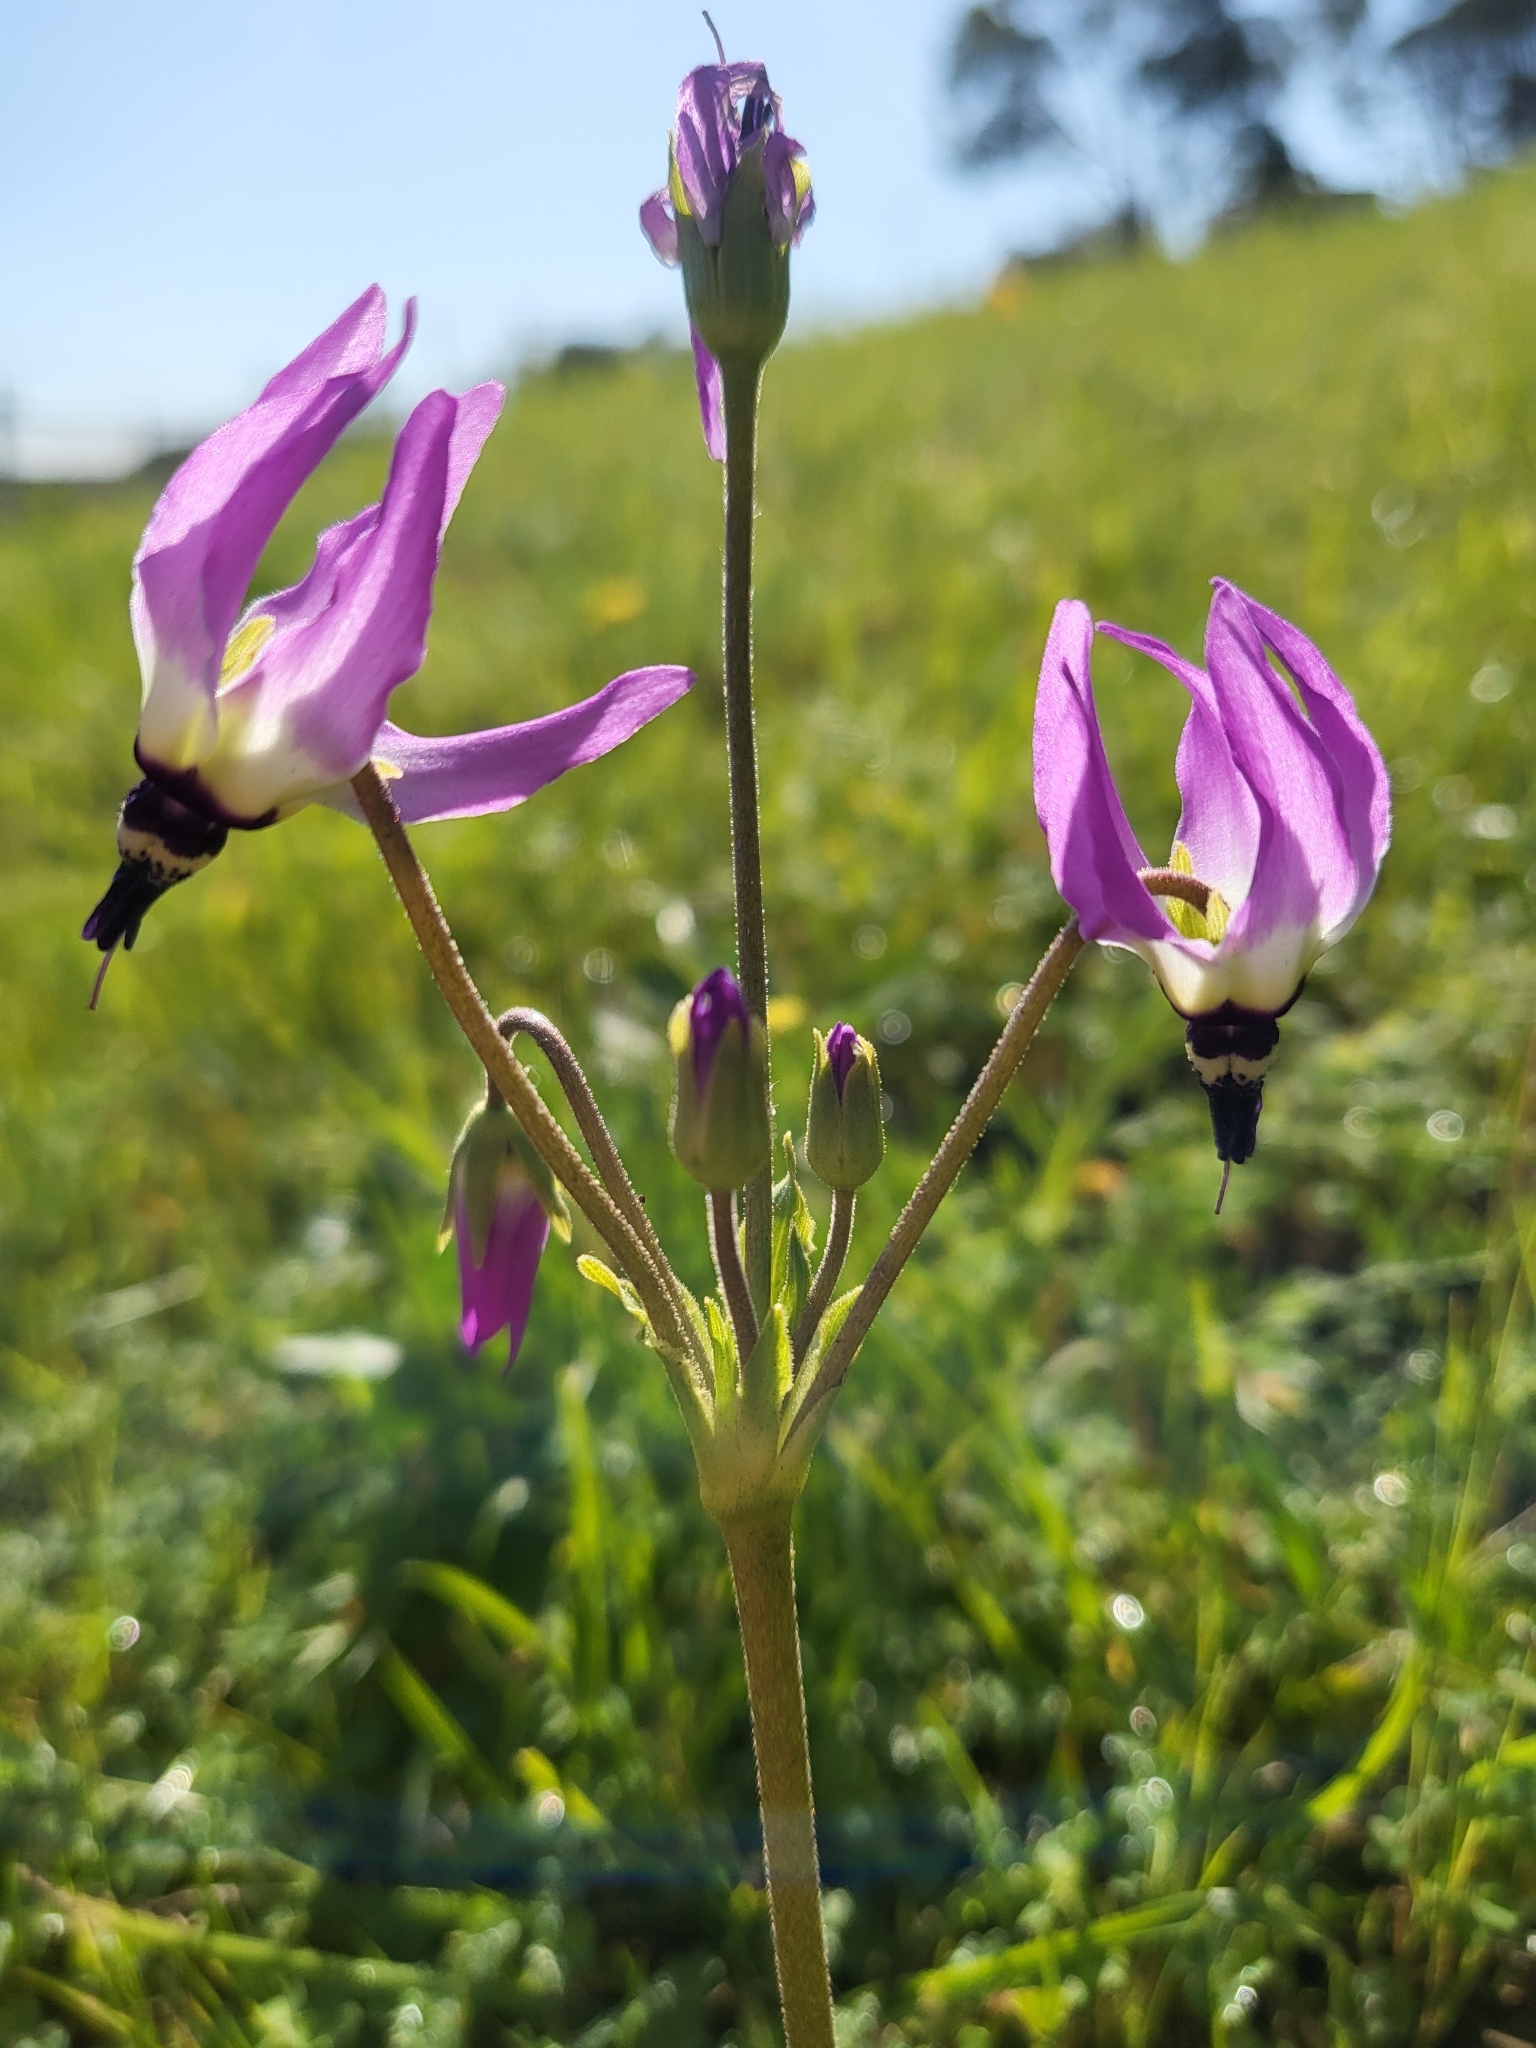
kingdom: Plantae
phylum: Tracheophyta
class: Magnoliopsida
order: Ericales
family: Primulaceae
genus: Dodecatheon
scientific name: Dodecatheon clevelandii
